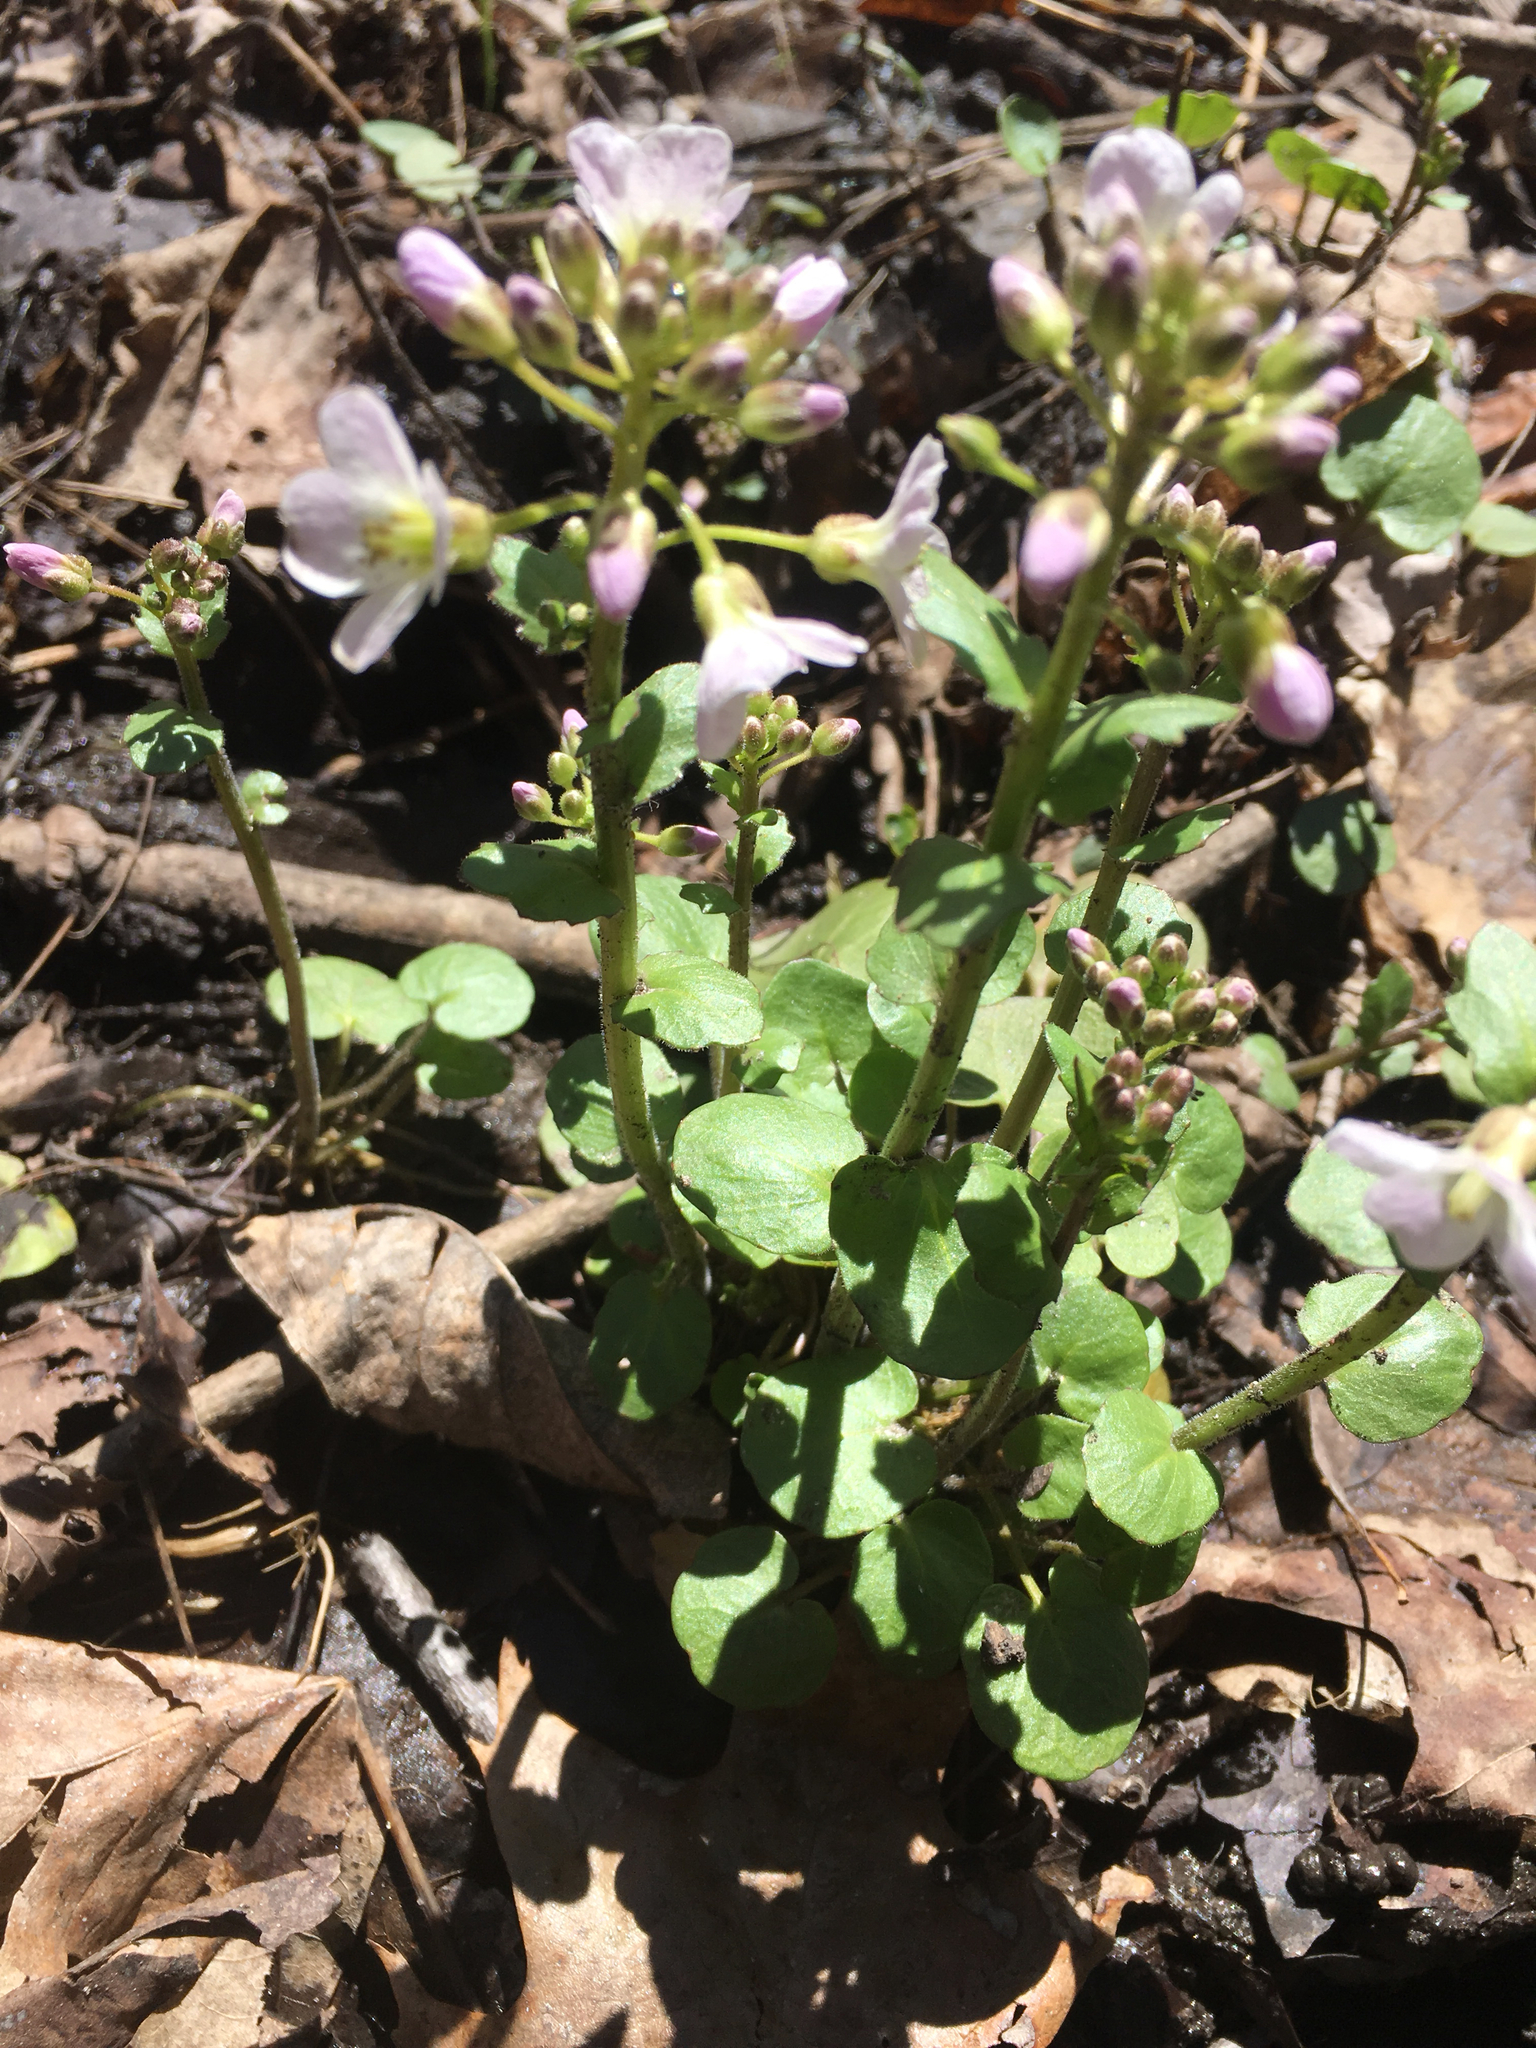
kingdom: Plantae
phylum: Tracheophyta
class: Magnoliopsida
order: Brassicales
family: Brassicaceae
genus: Cardamine
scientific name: Cardamine douglassii
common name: Purple cress
